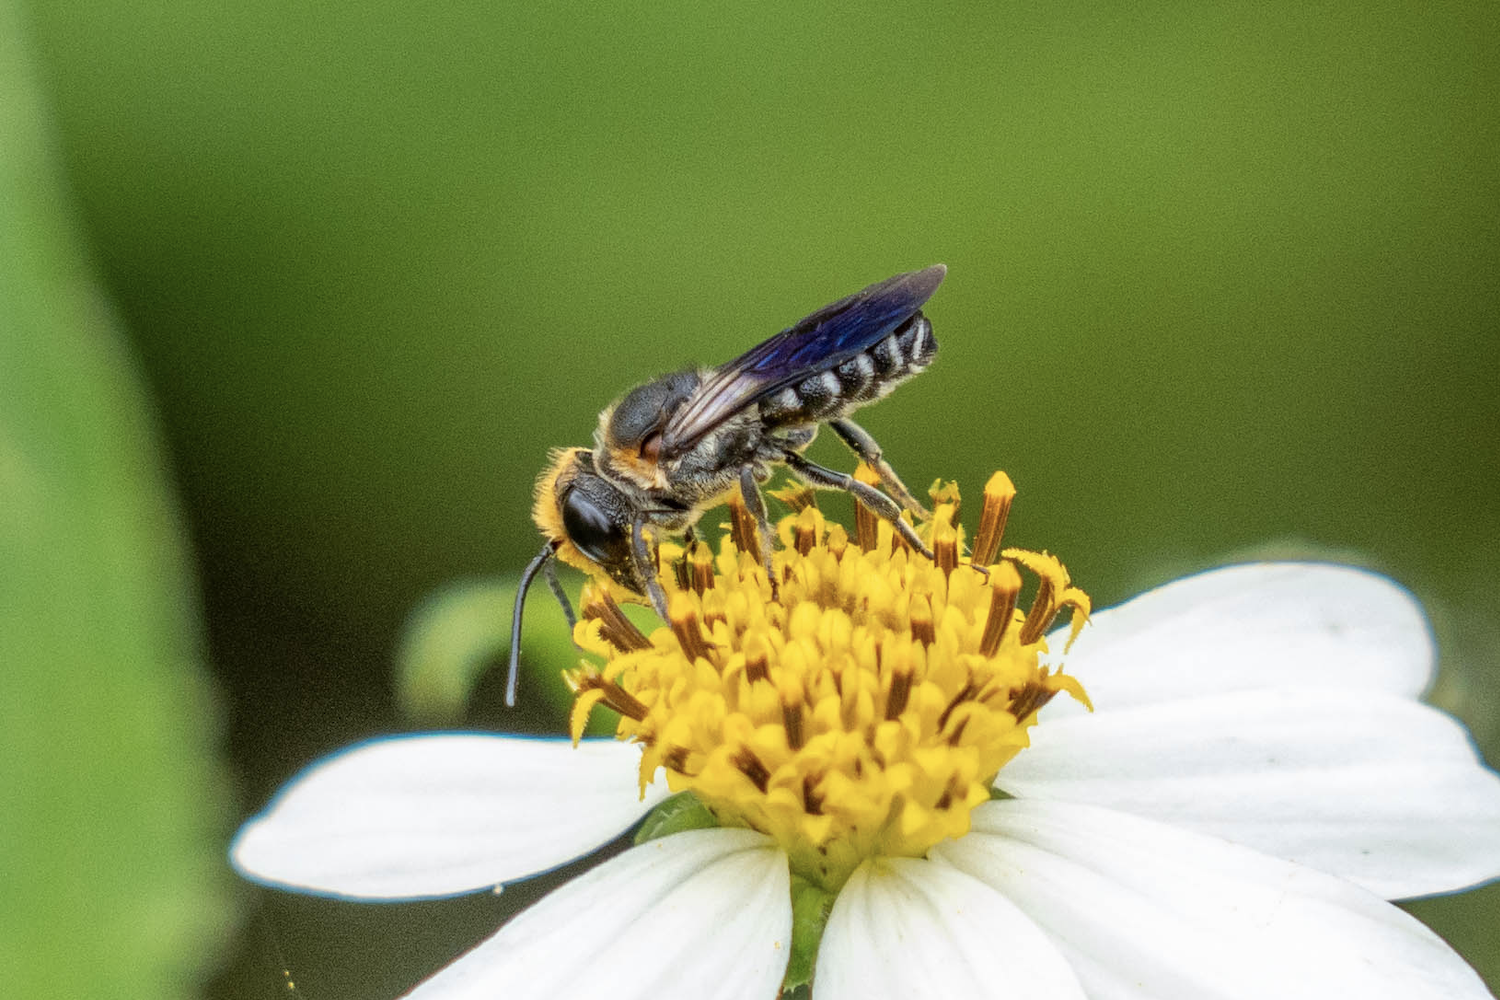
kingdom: Animalia
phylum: Arthropoda
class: Insecta
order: Hymenoptera
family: Megachilidae
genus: Megachile
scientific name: Megachile faceta
